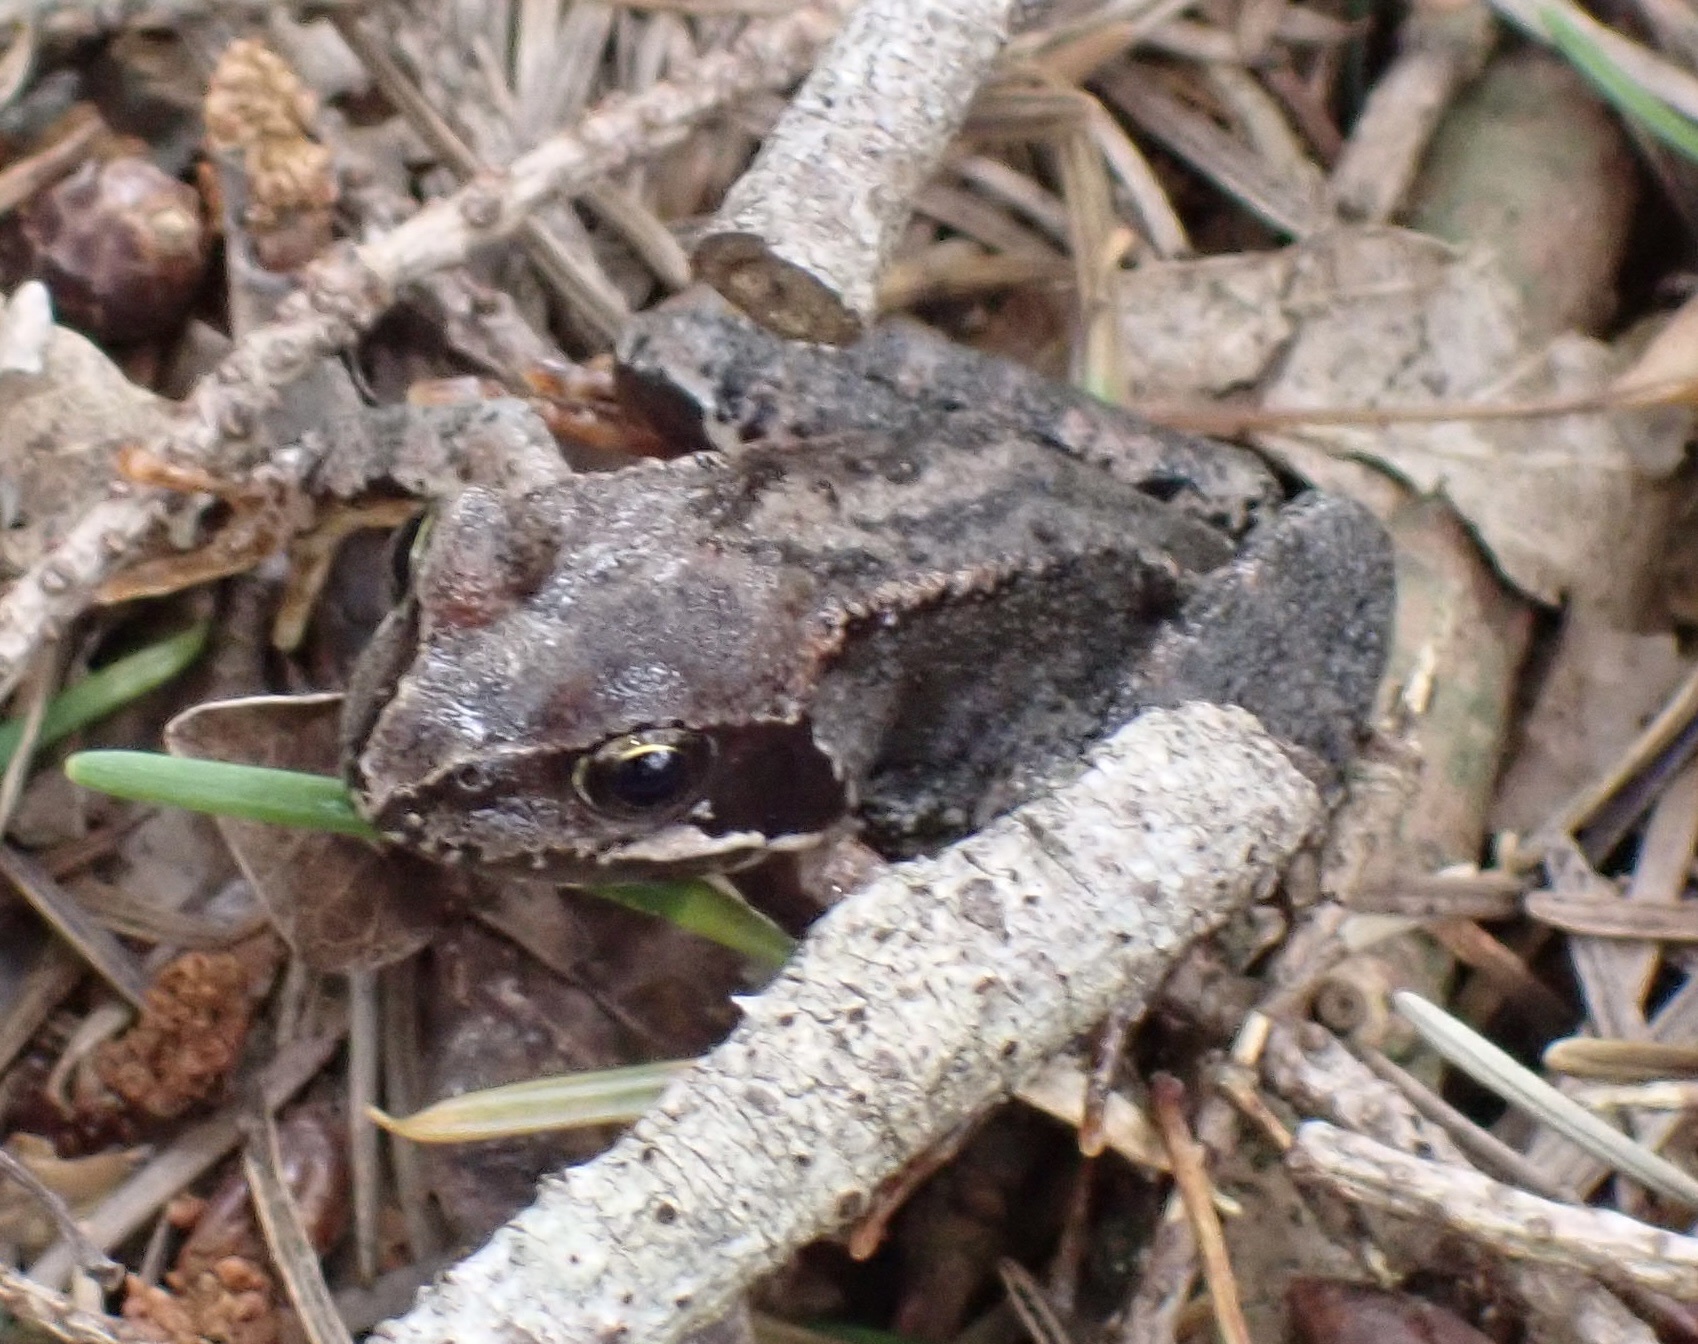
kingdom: Animalia
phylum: Chordata
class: Amphibia
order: Anura
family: Ranidae
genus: Rana
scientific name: Rana temporaria
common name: Common frog
